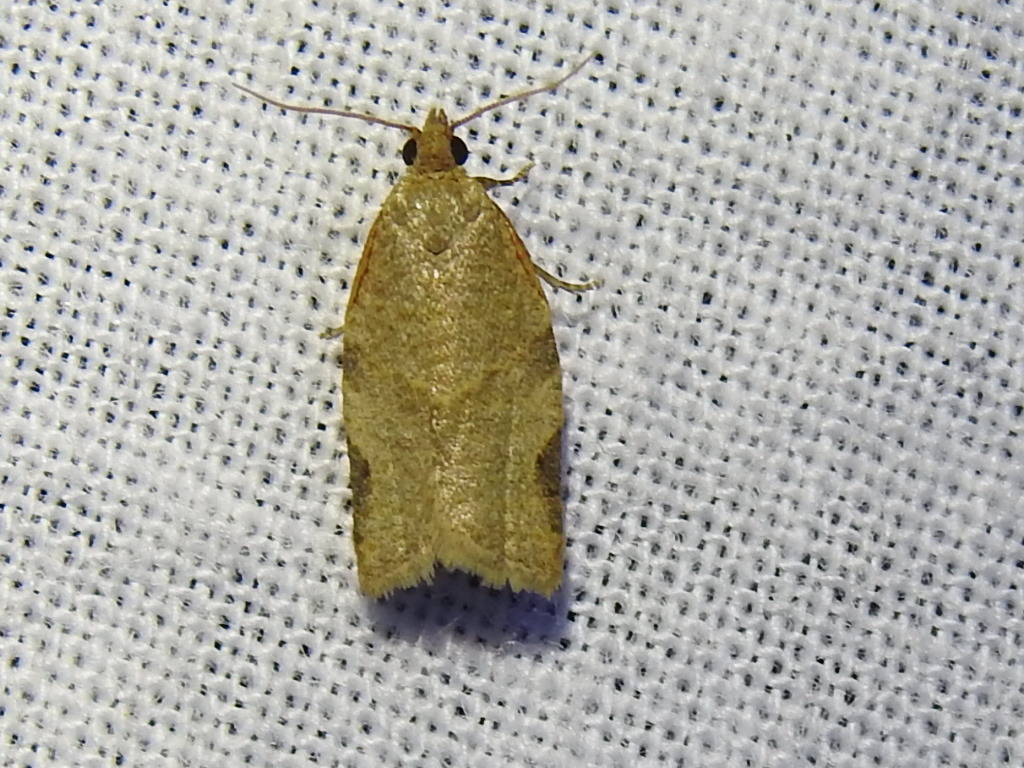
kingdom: Animalia
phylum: Arthropoda
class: Insecta
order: Lepidoptera
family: Tortricidae
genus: Clepsis
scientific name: Clepsis virescana
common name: Greenish apple moth
